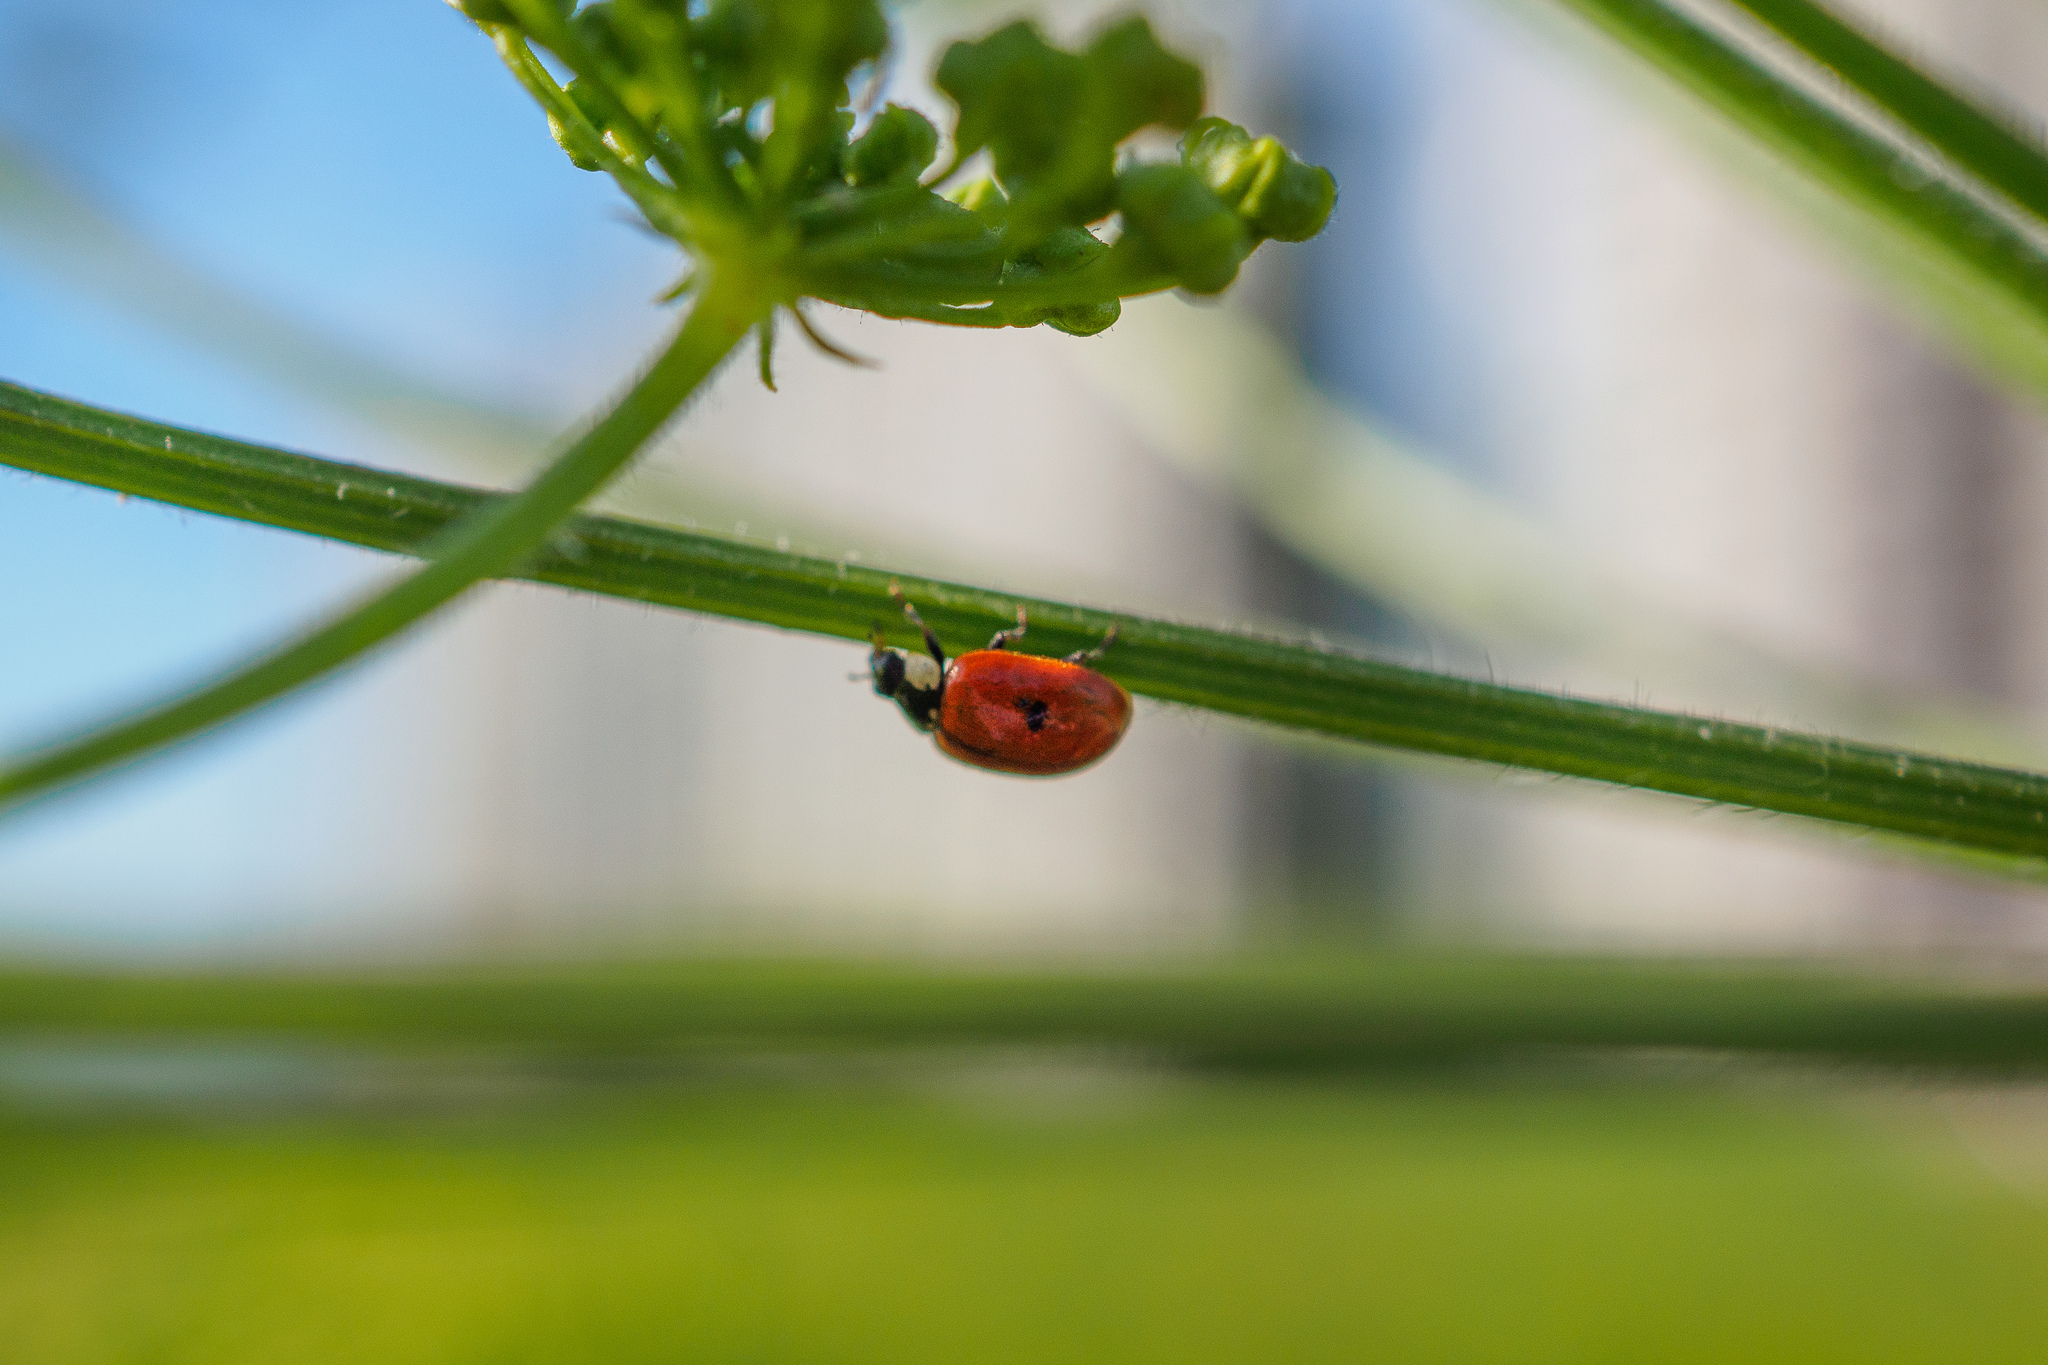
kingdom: Animalia
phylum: Arthropoda
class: Insecta
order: Coleoptera
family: Coccinellidae
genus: Adalia
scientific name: Adalia bipunctata
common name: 2-spot ladybird
